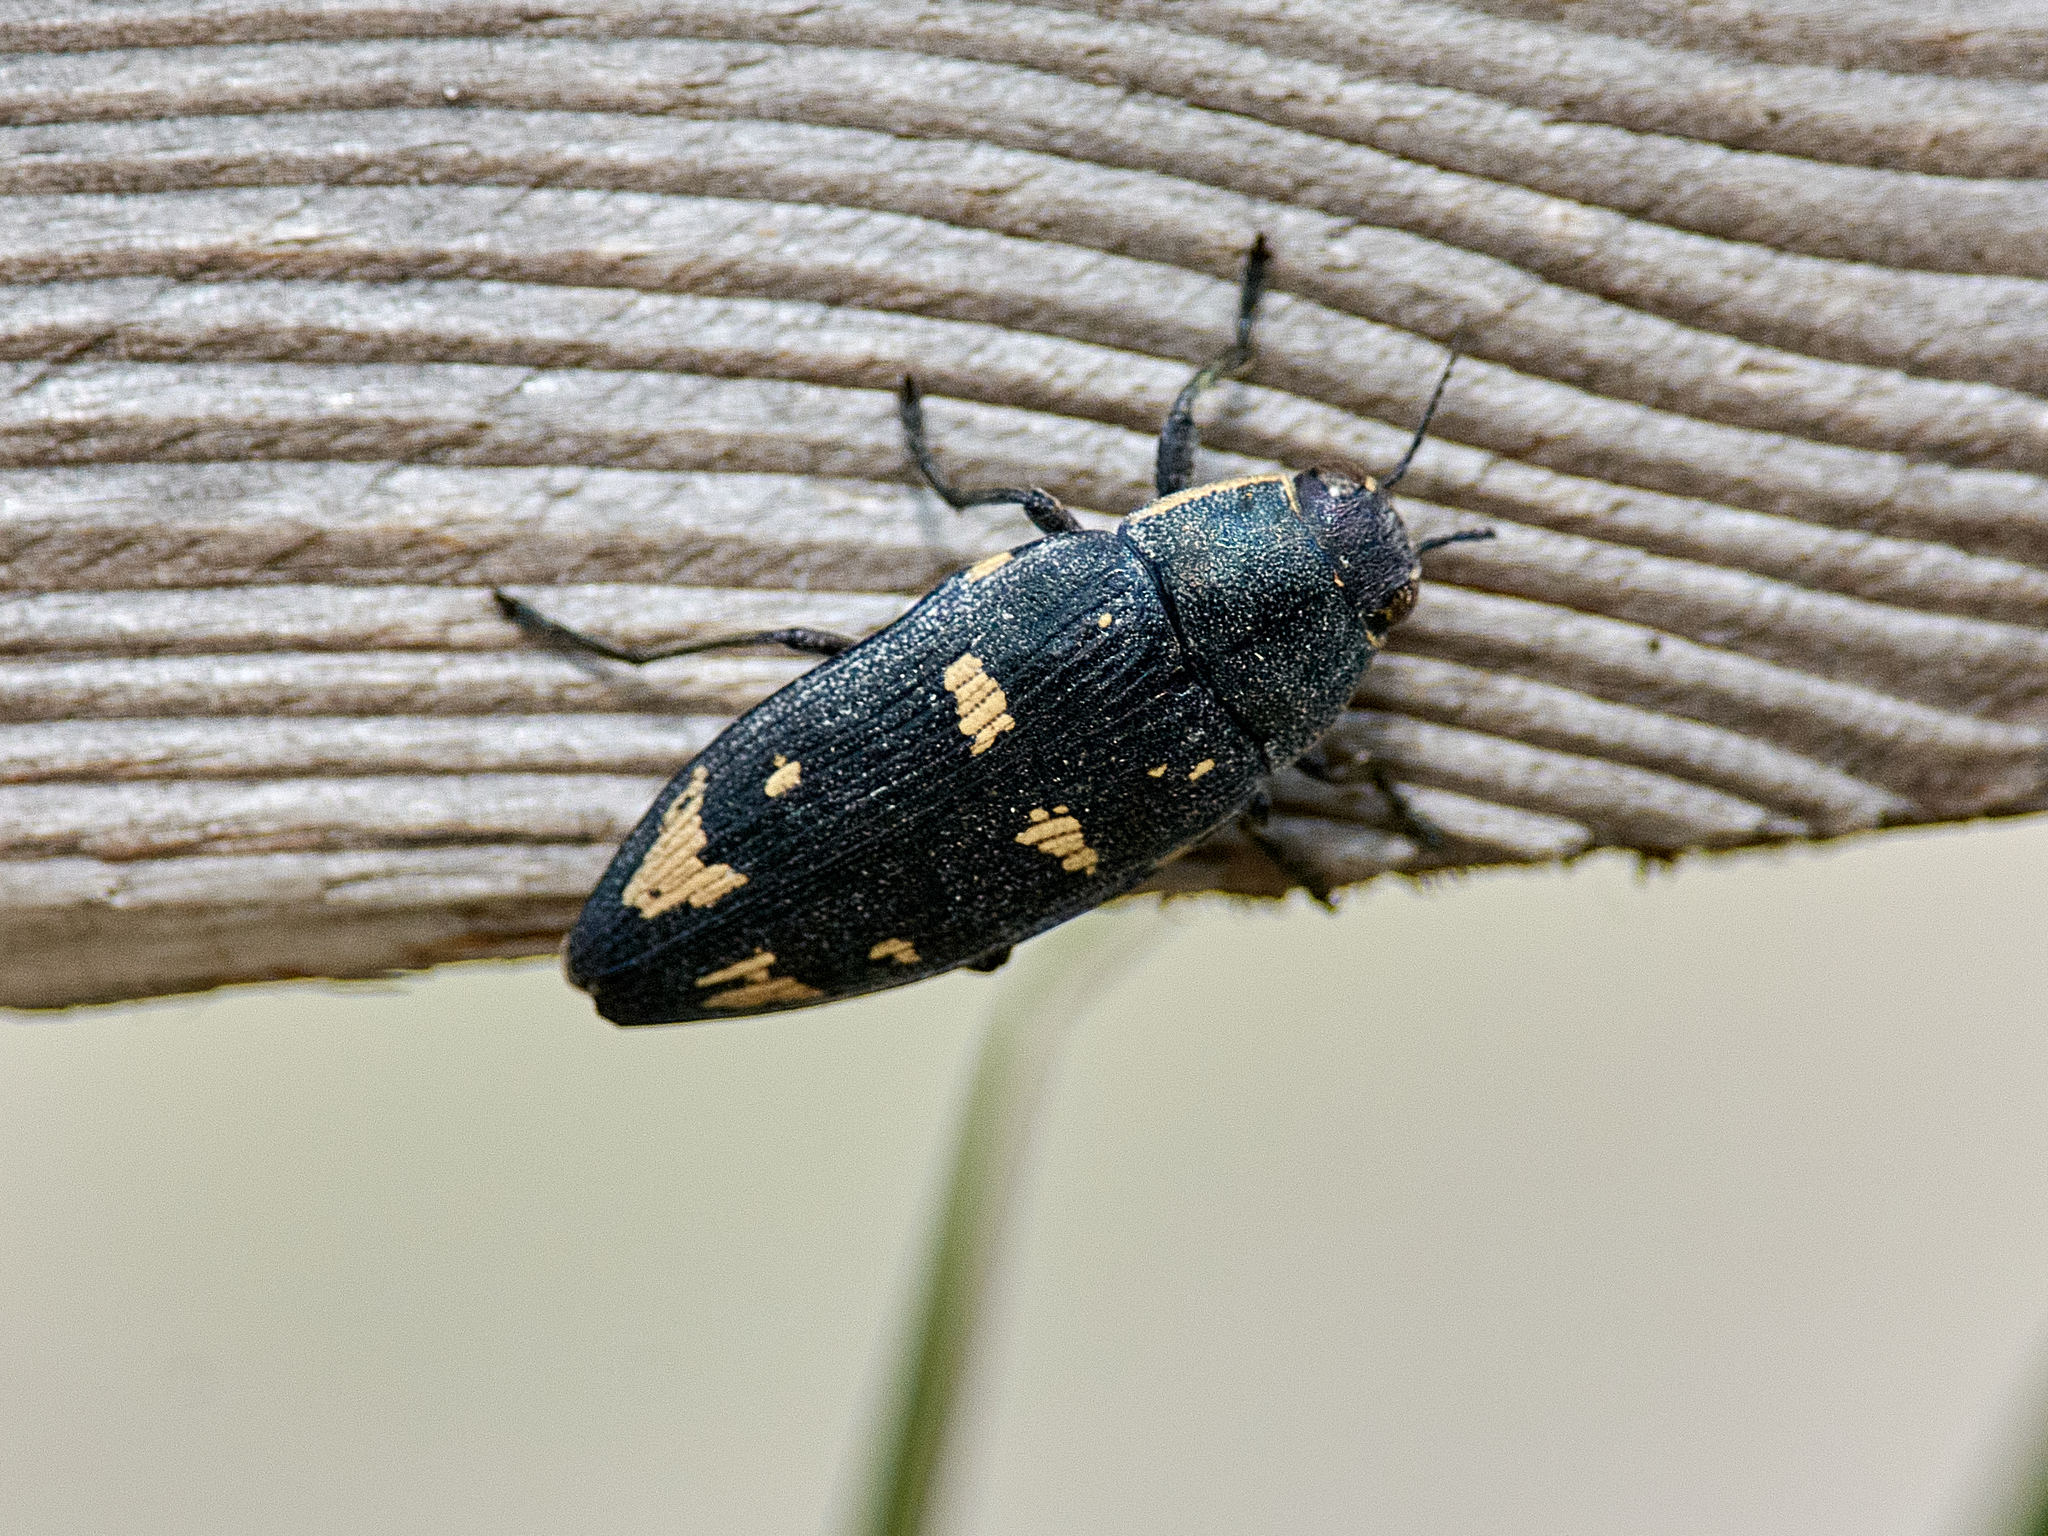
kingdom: Animalia
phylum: Arthropoda
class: Insecta
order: Coleoptera
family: Buprestidae
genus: Buprestis
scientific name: Buprestis novemmaculata
